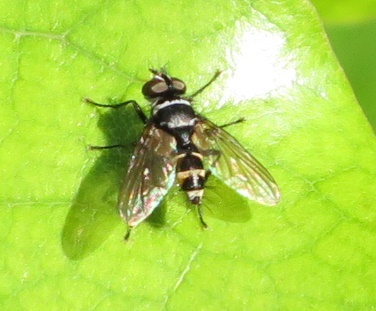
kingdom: Animalia
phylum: Arthropoda
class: Insecta
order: Diptera
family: Tachinidae
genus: Trigonospila
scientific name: Trigonospila brevifacies
